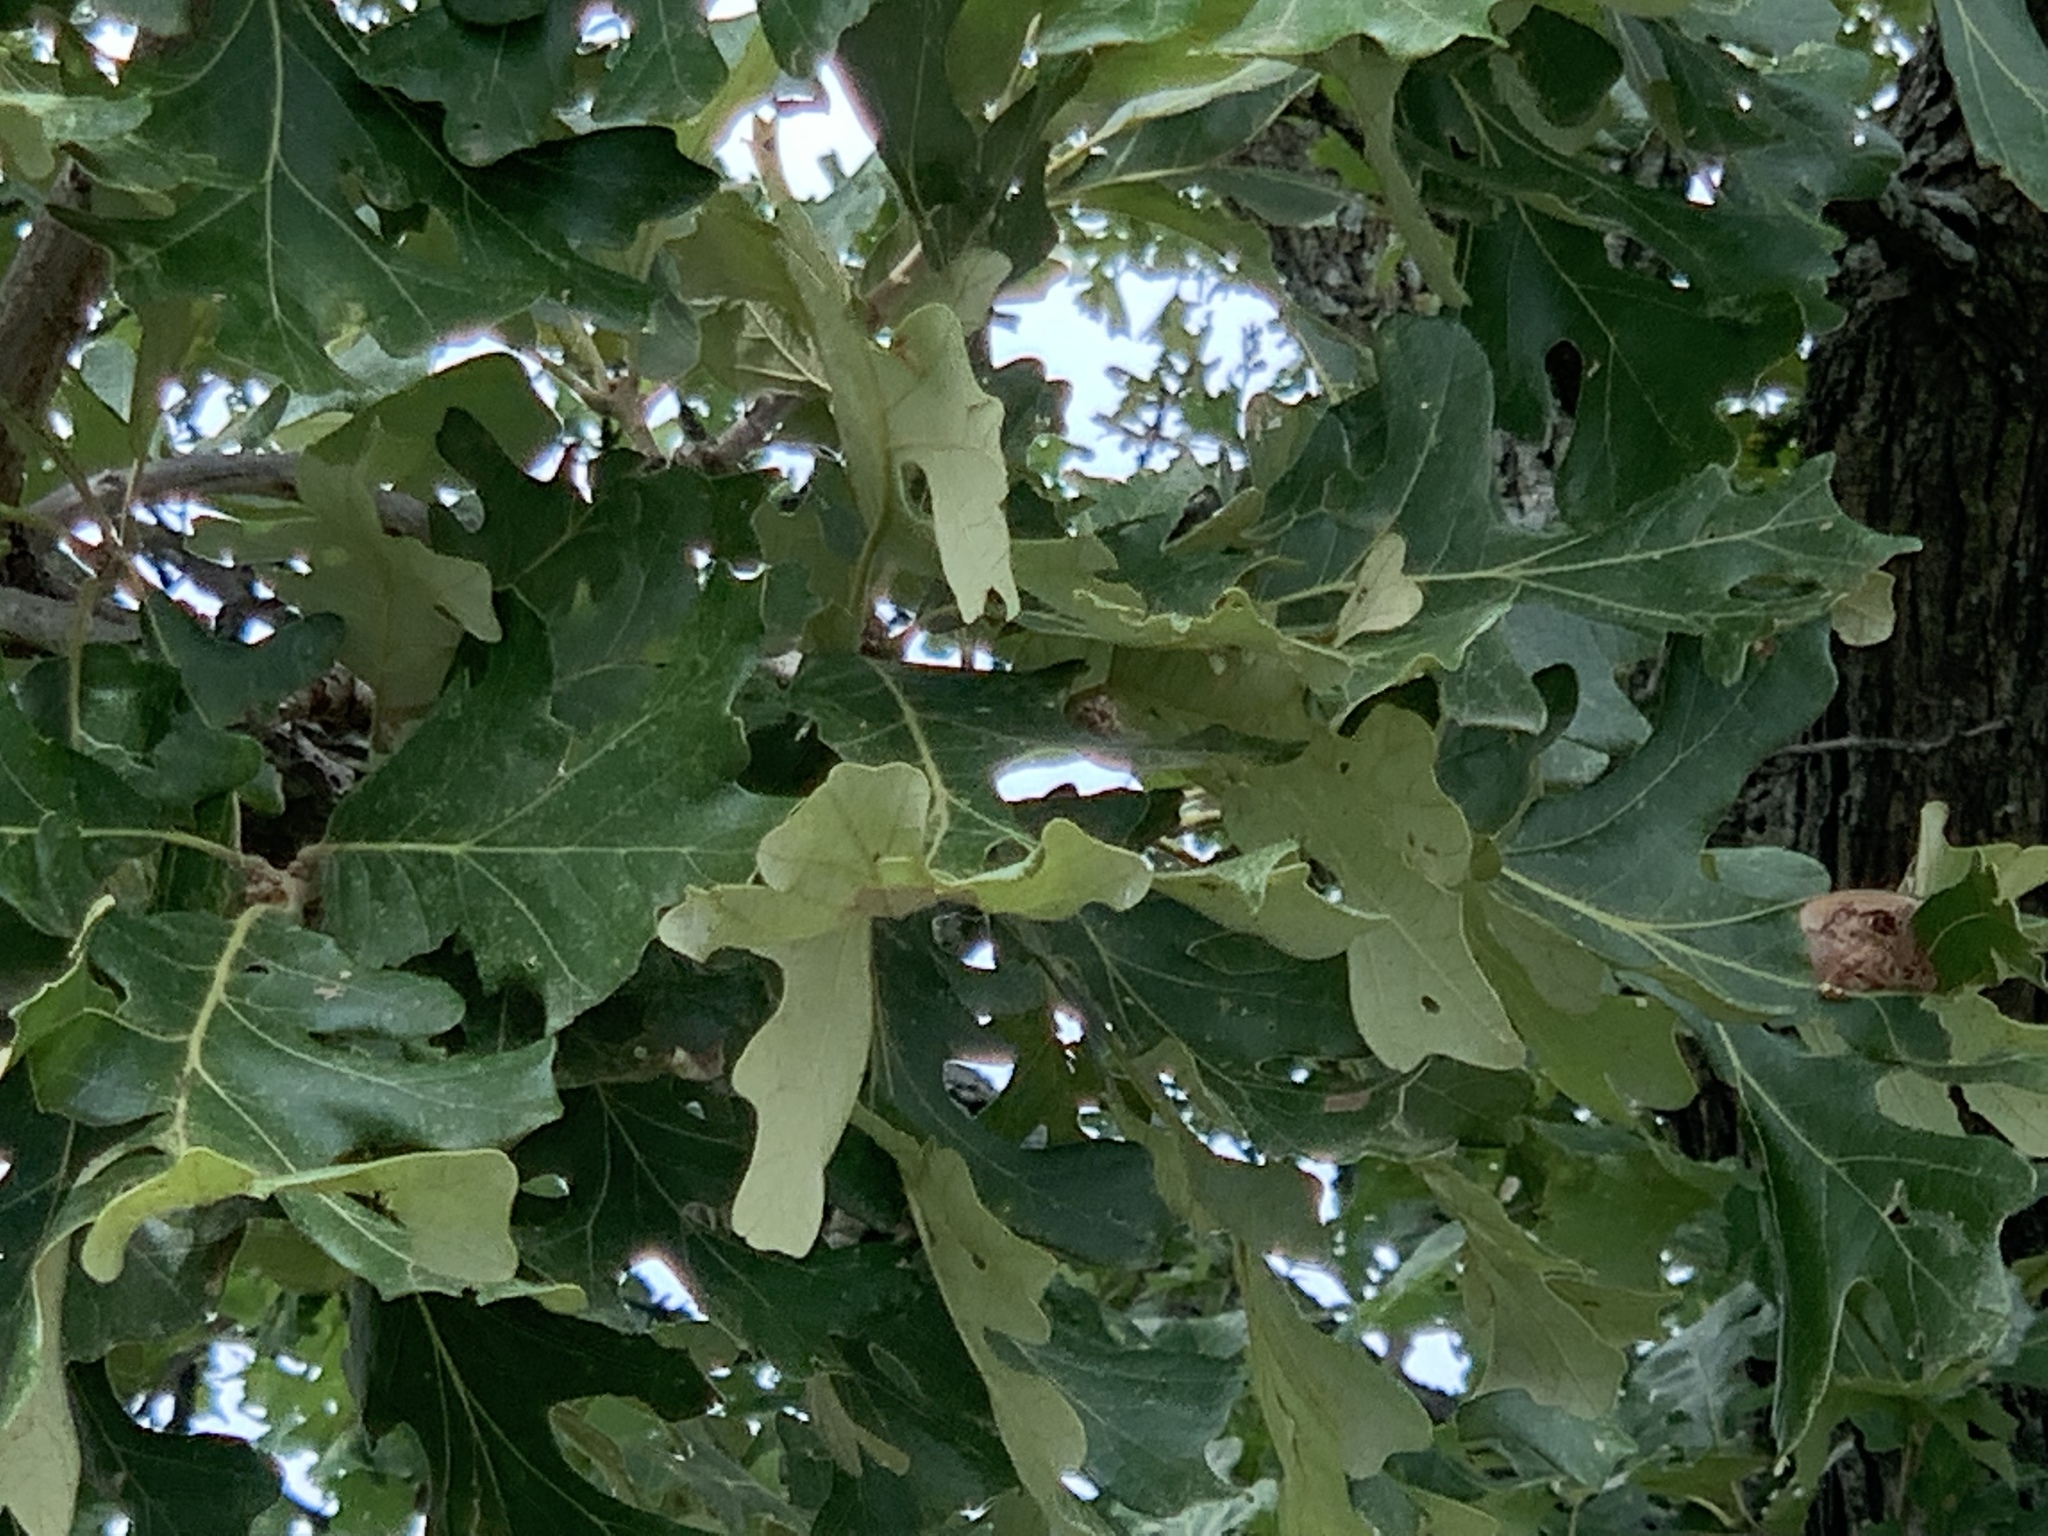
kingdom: Plantae
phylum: Tracheophyta
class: Magnoliopsida
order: Fagales
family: Fagaceae
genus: Quercus
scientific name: Quercus macrocarpa
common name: Bur oak
